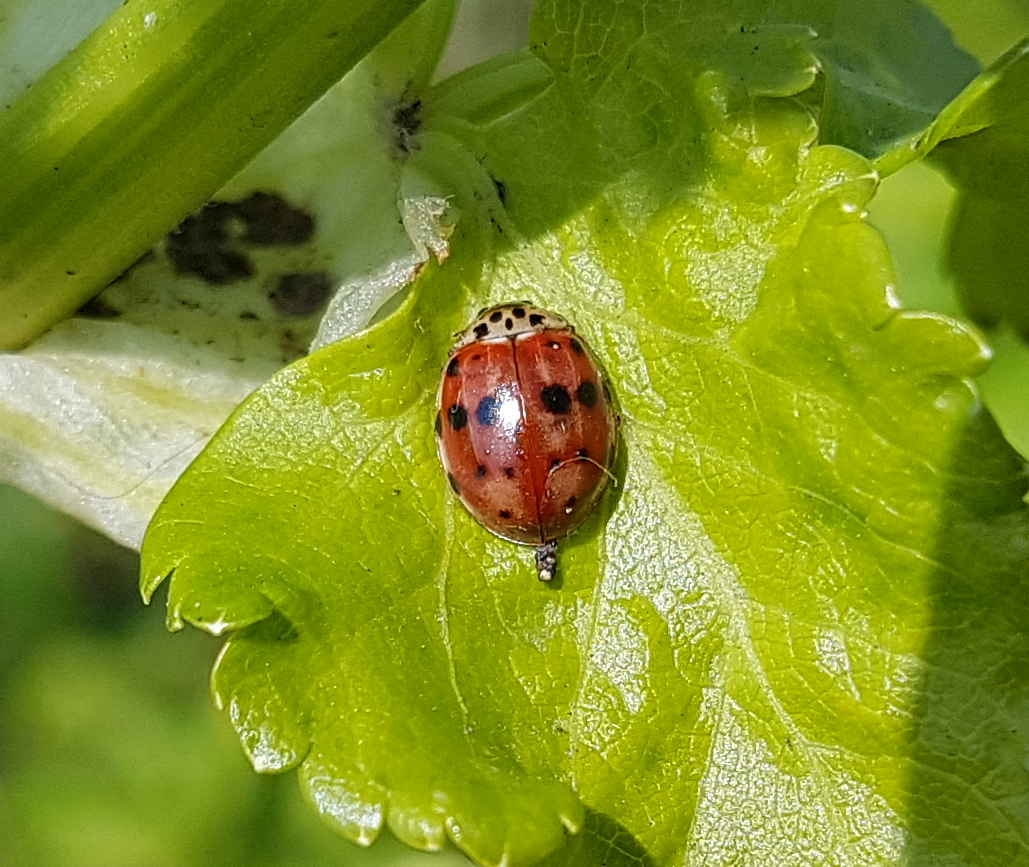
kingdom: Animalia
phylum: Arthropoda
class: Insecta
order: Coleoptera
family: Coccinellidae
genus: Harmonia
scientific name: Harmonia quadripunctata
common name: Cream-streaked ladybird
